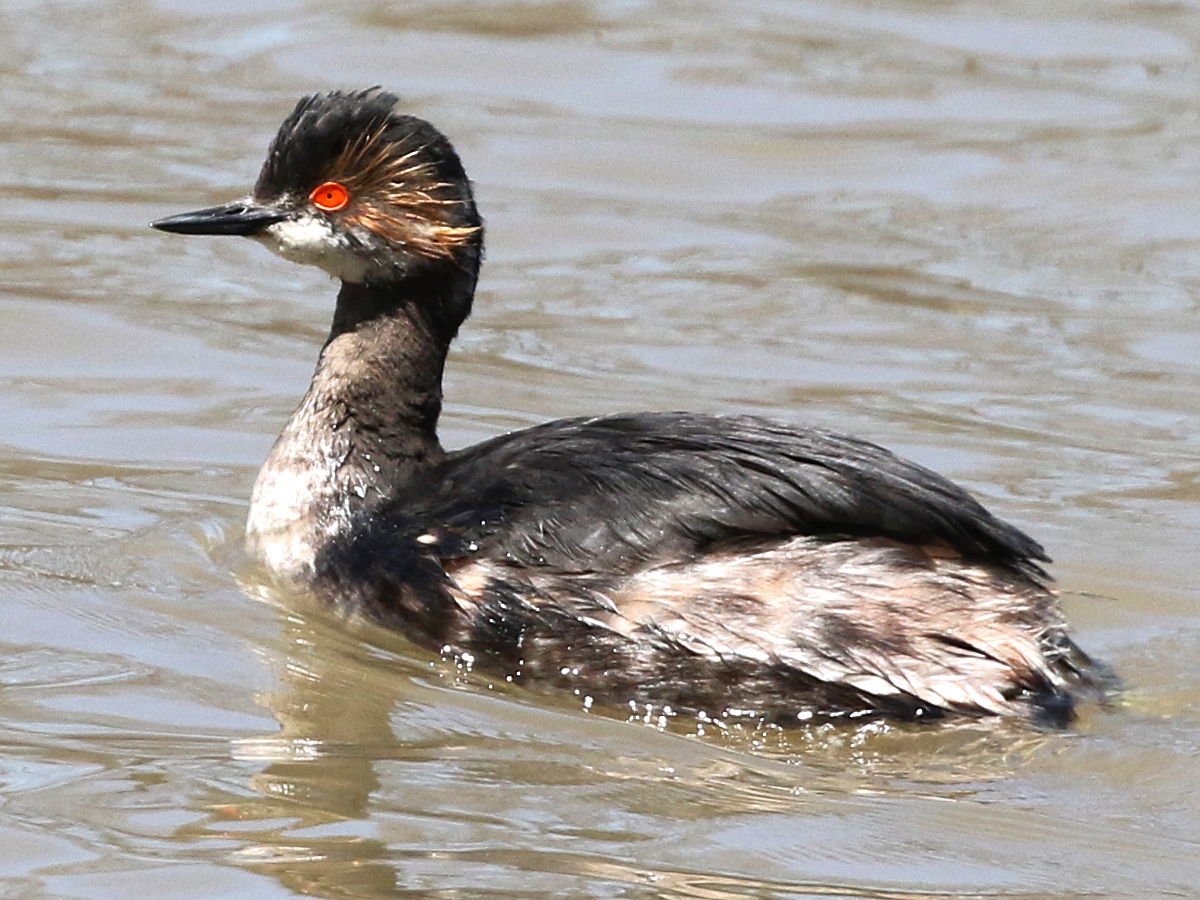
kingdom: Animalia
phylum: Chordata
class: Aves
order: Podicipediformes
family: Podicipedidae
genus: Podiceps
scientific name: Podiceps nigricollis
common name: Black-necked grebe
